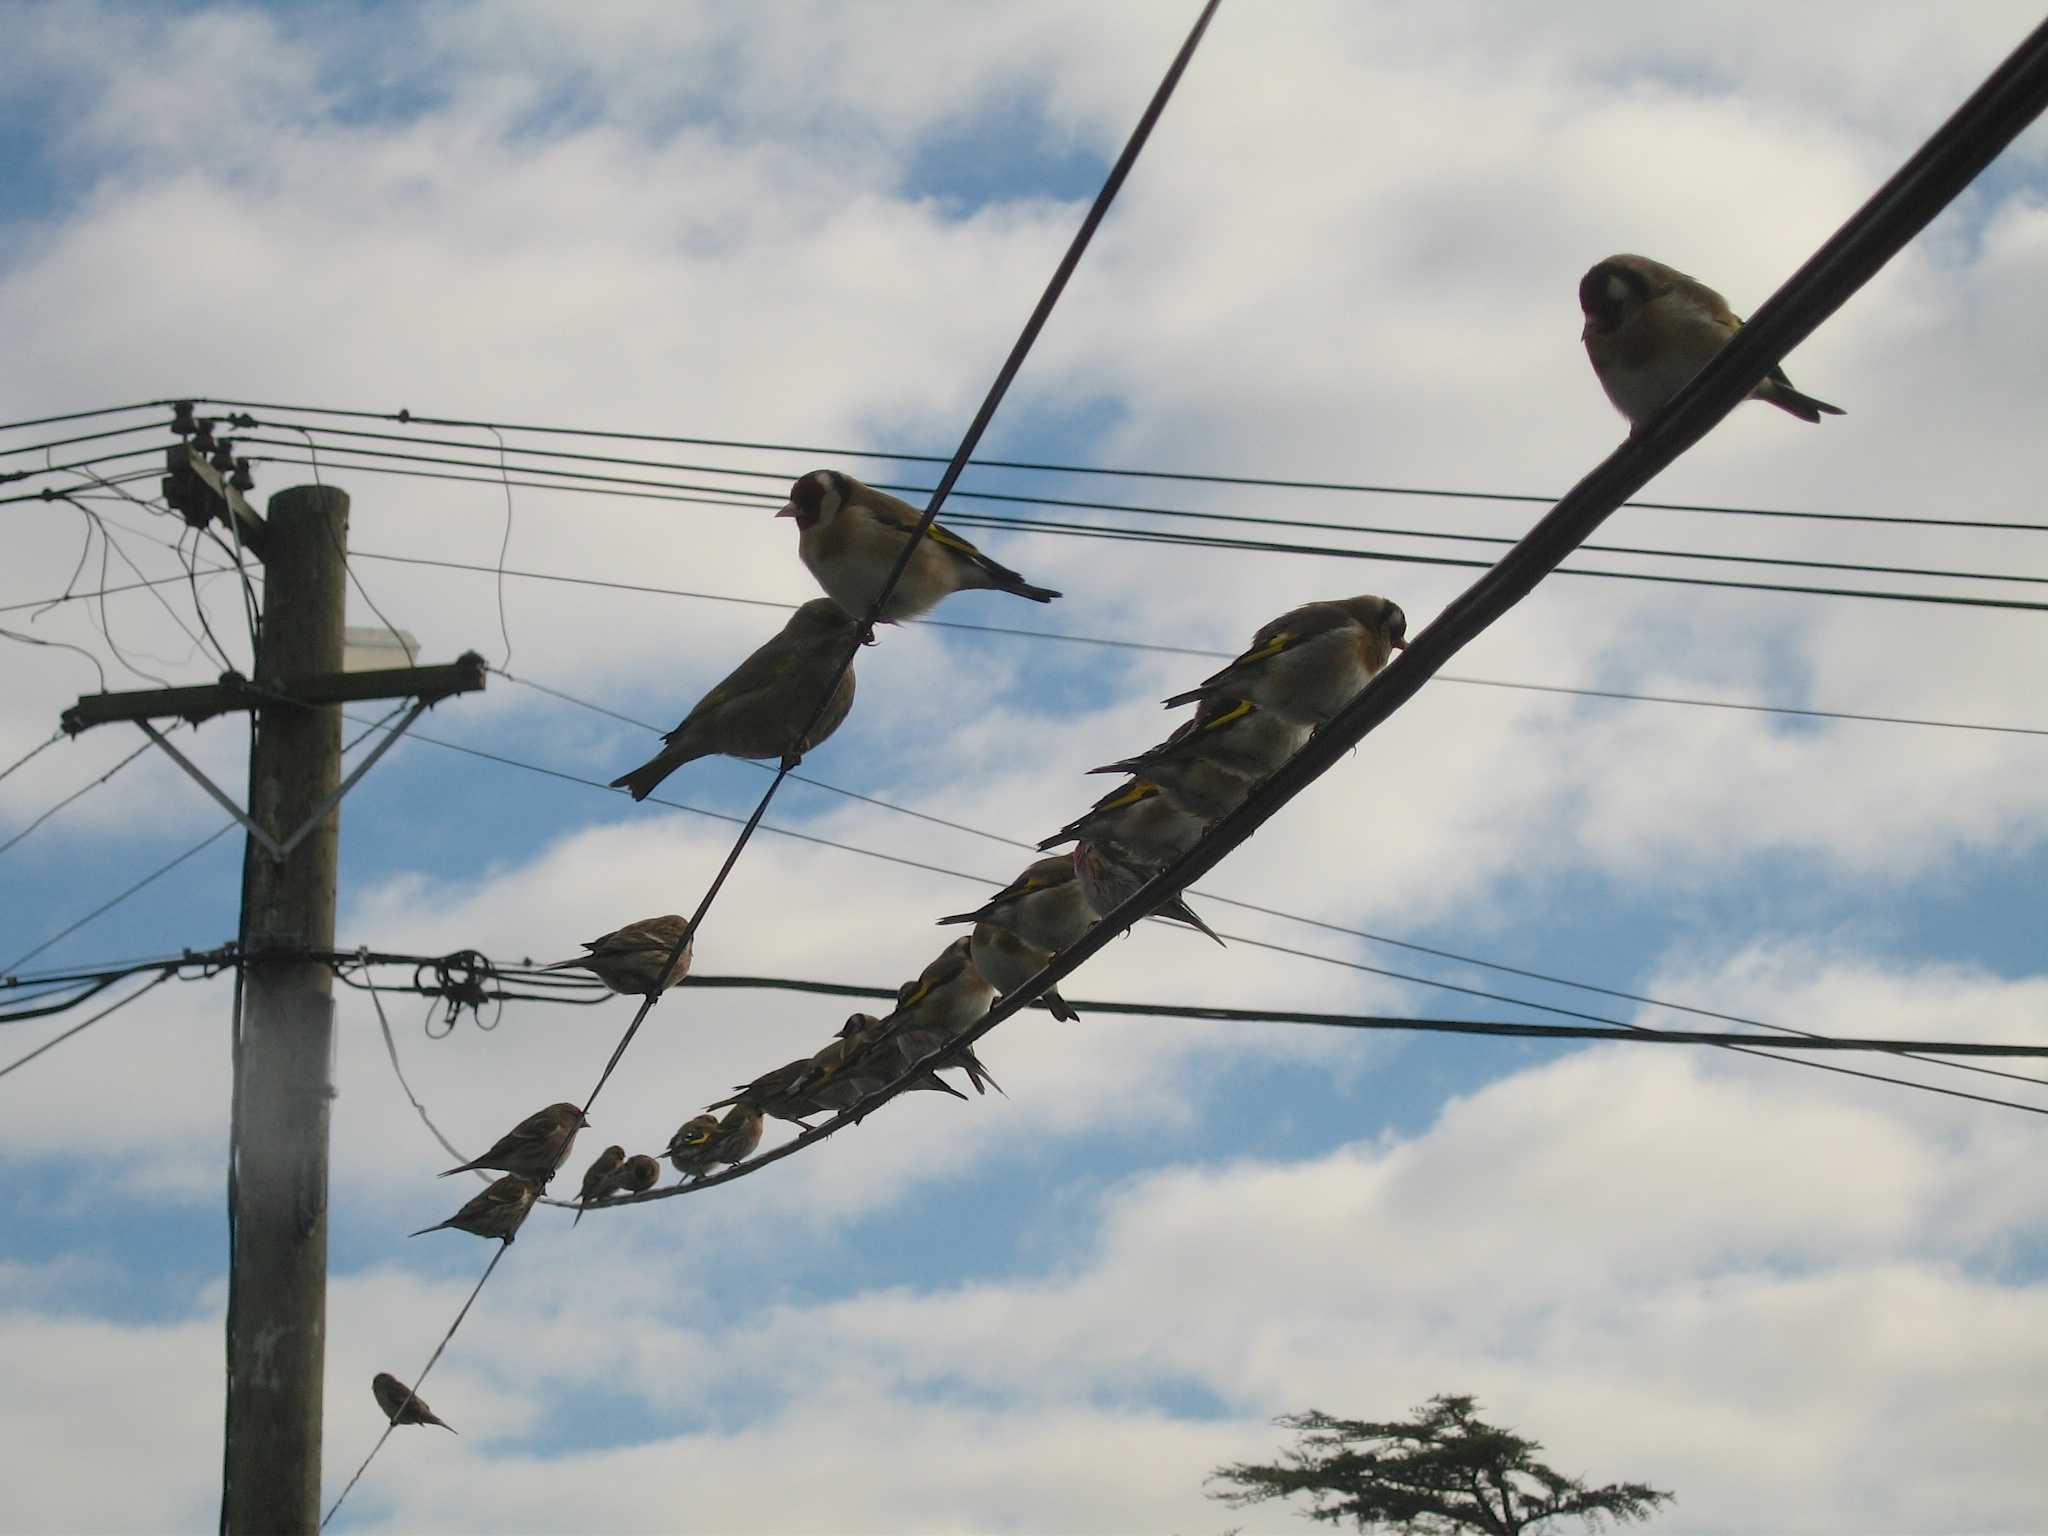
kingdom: Animalia
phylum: Chordata
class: Aves
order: Passeriformes
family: Fringillidae
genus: Carduelis
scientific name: Carduelis carduelis
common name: European goldfinch
